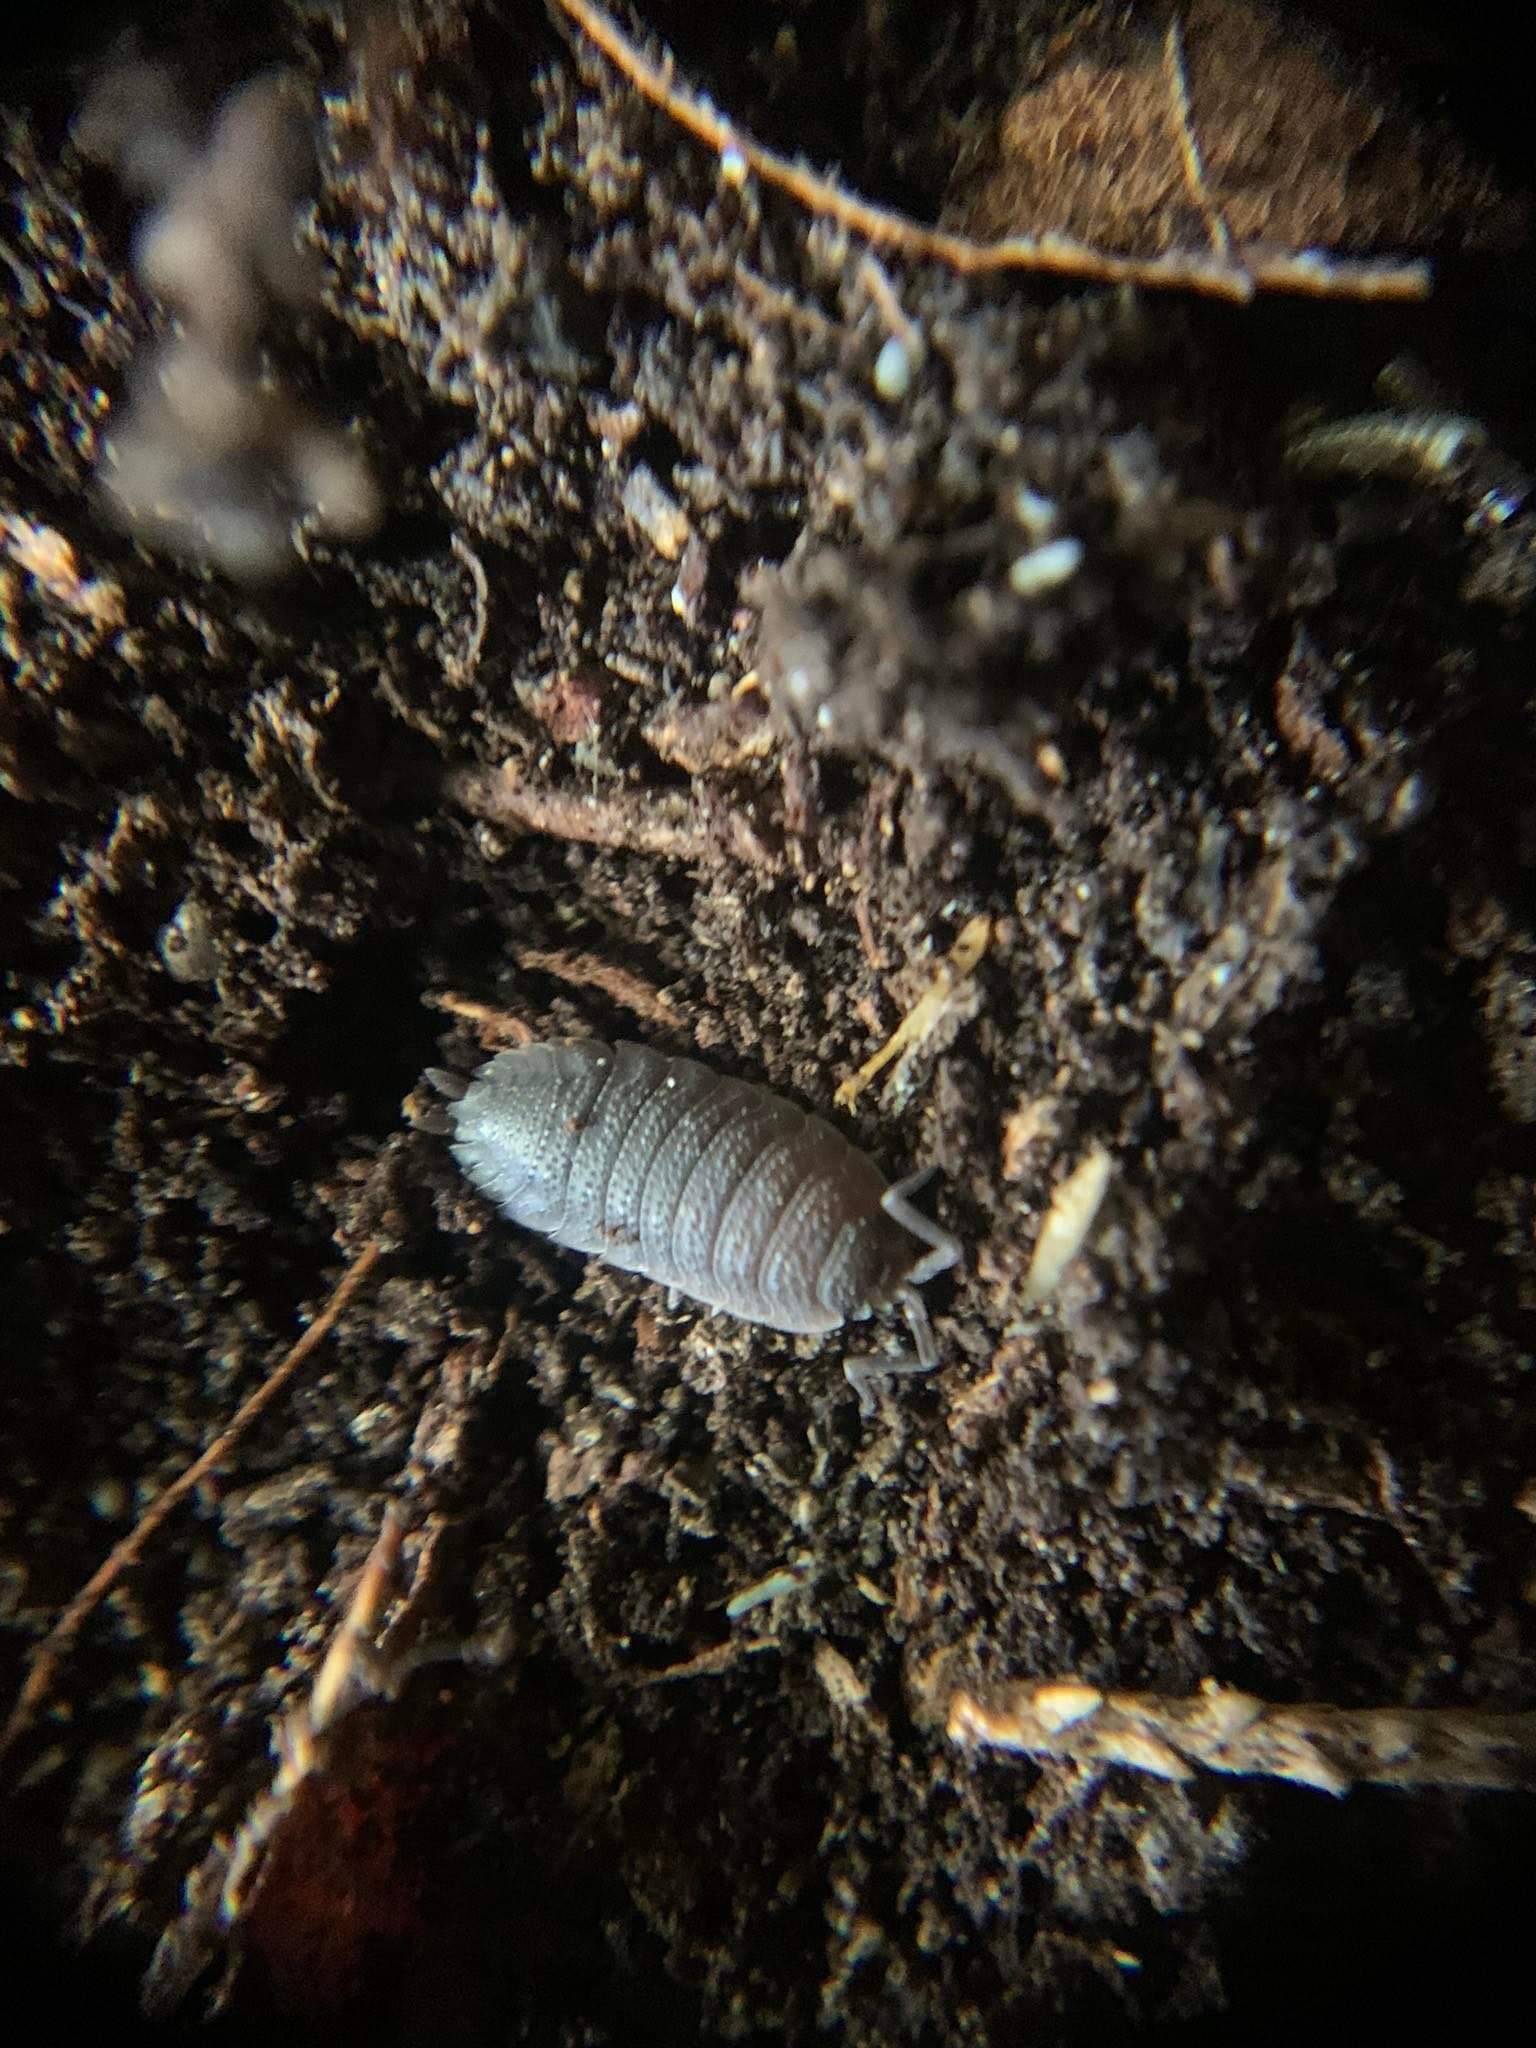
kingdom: Animalia
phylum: Arthropoda
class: Malacostraca
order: Isopoda
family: Porcellionidae
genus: Porcellio
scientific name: Porcellio scaber
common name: Common rough woodlouse
